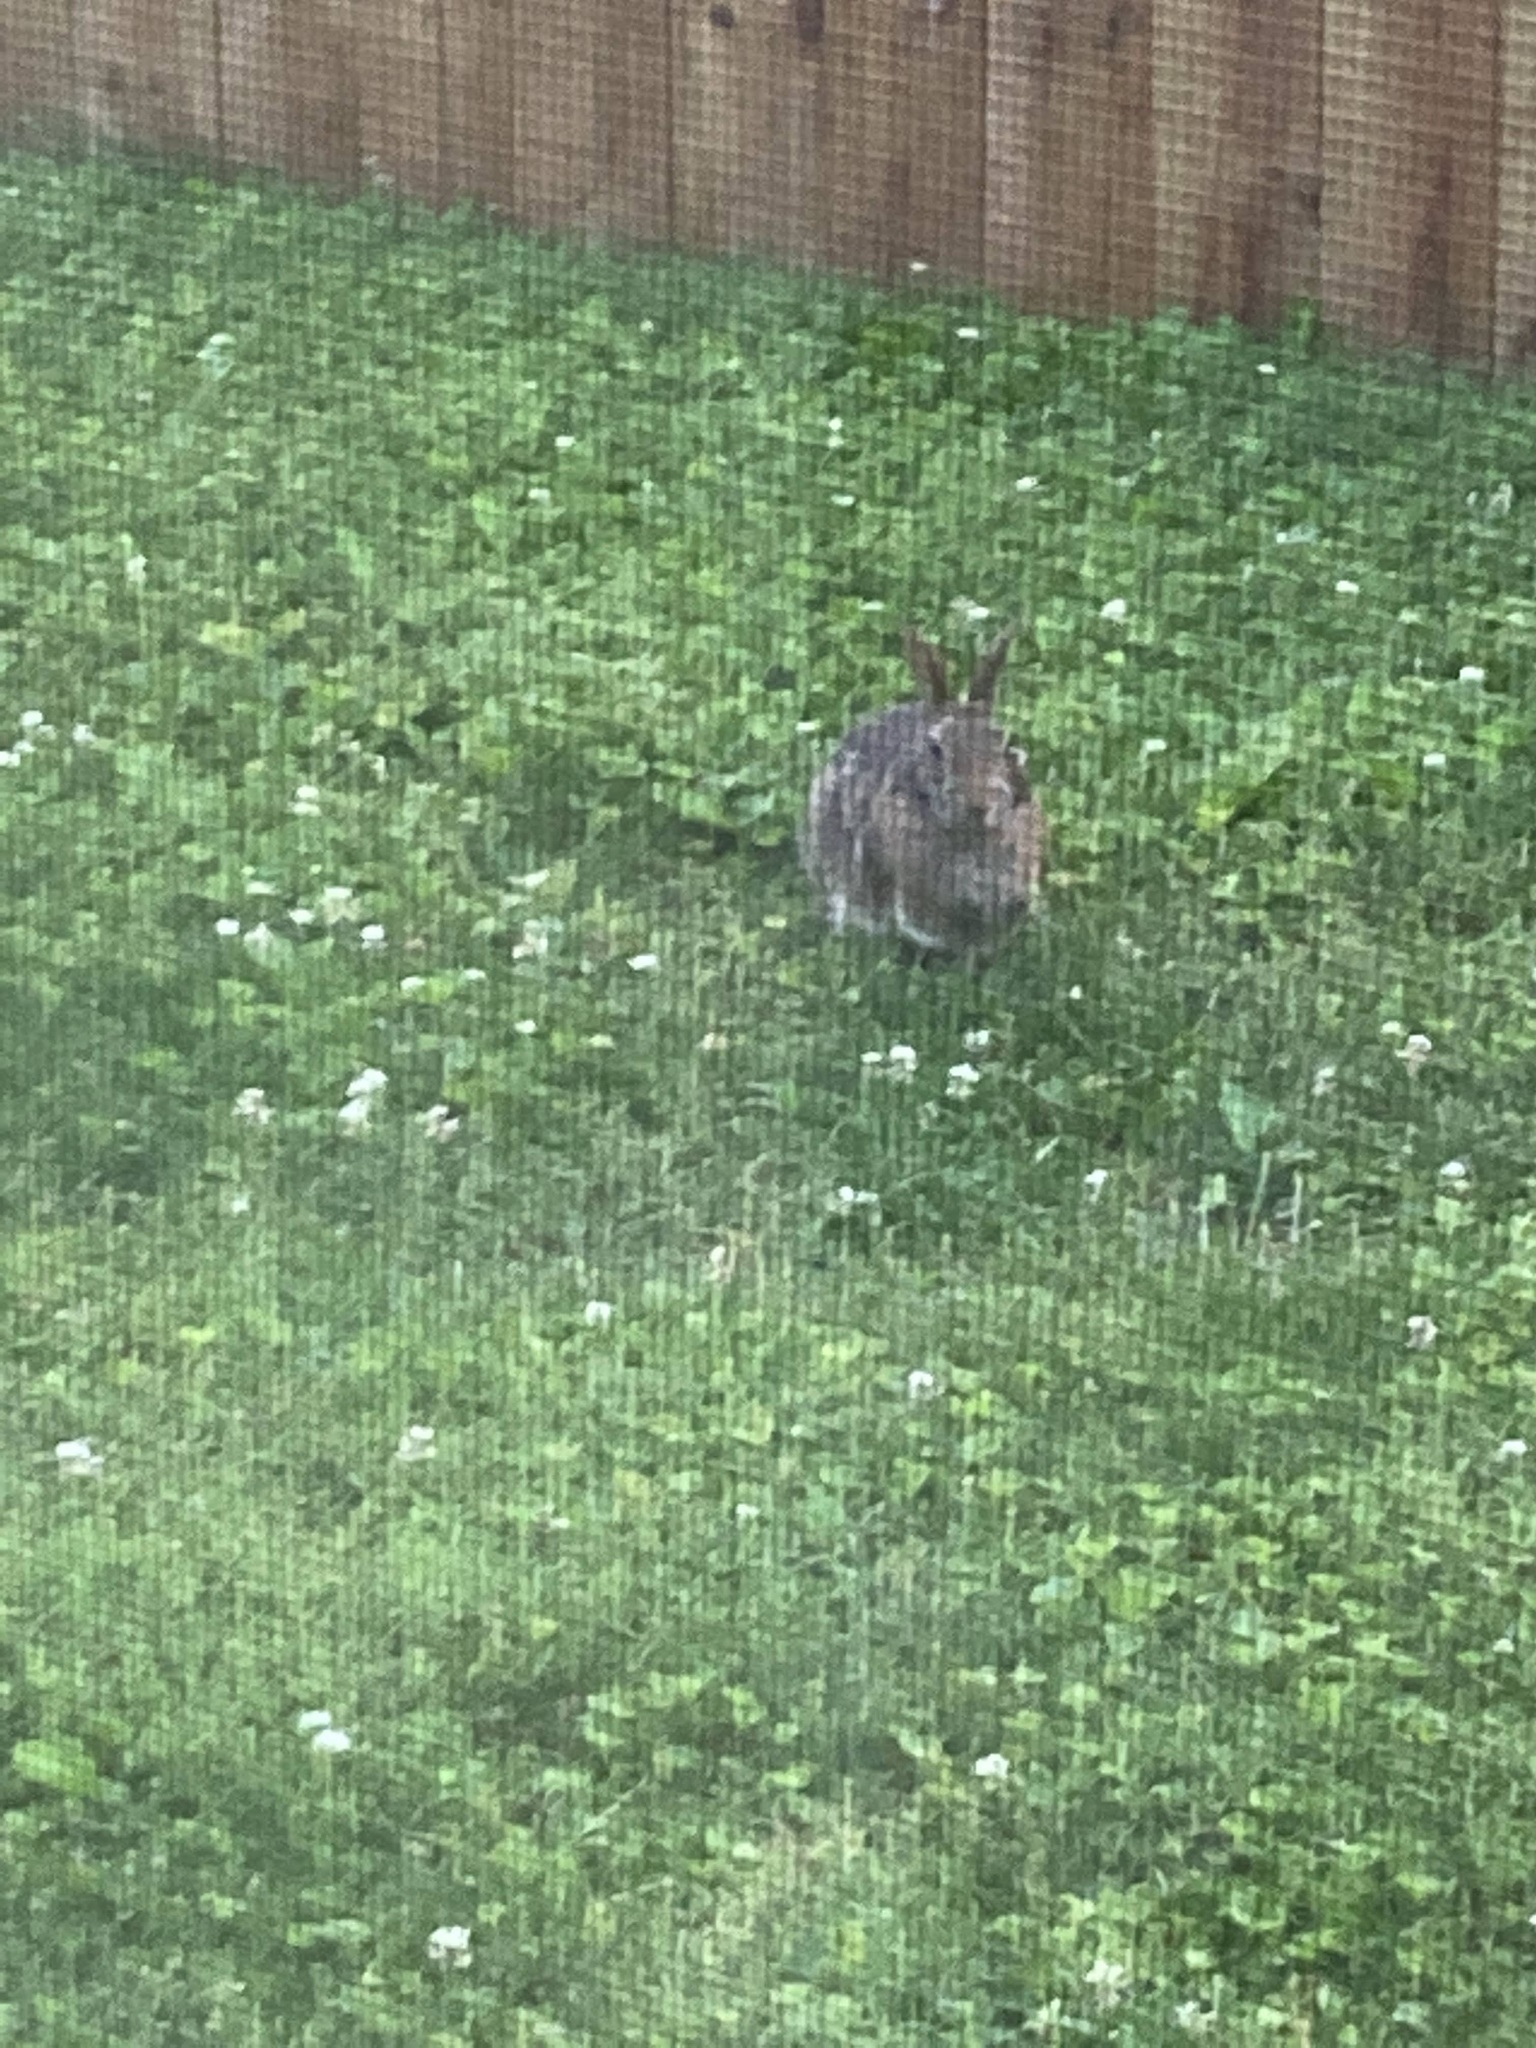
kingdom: Animalia
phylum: Chordata
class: Mammalia
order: Lagomorpha
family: Leporidae
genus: Sylvilagus
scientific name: Sylvilagus floridanus
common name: Eastern cottontail
